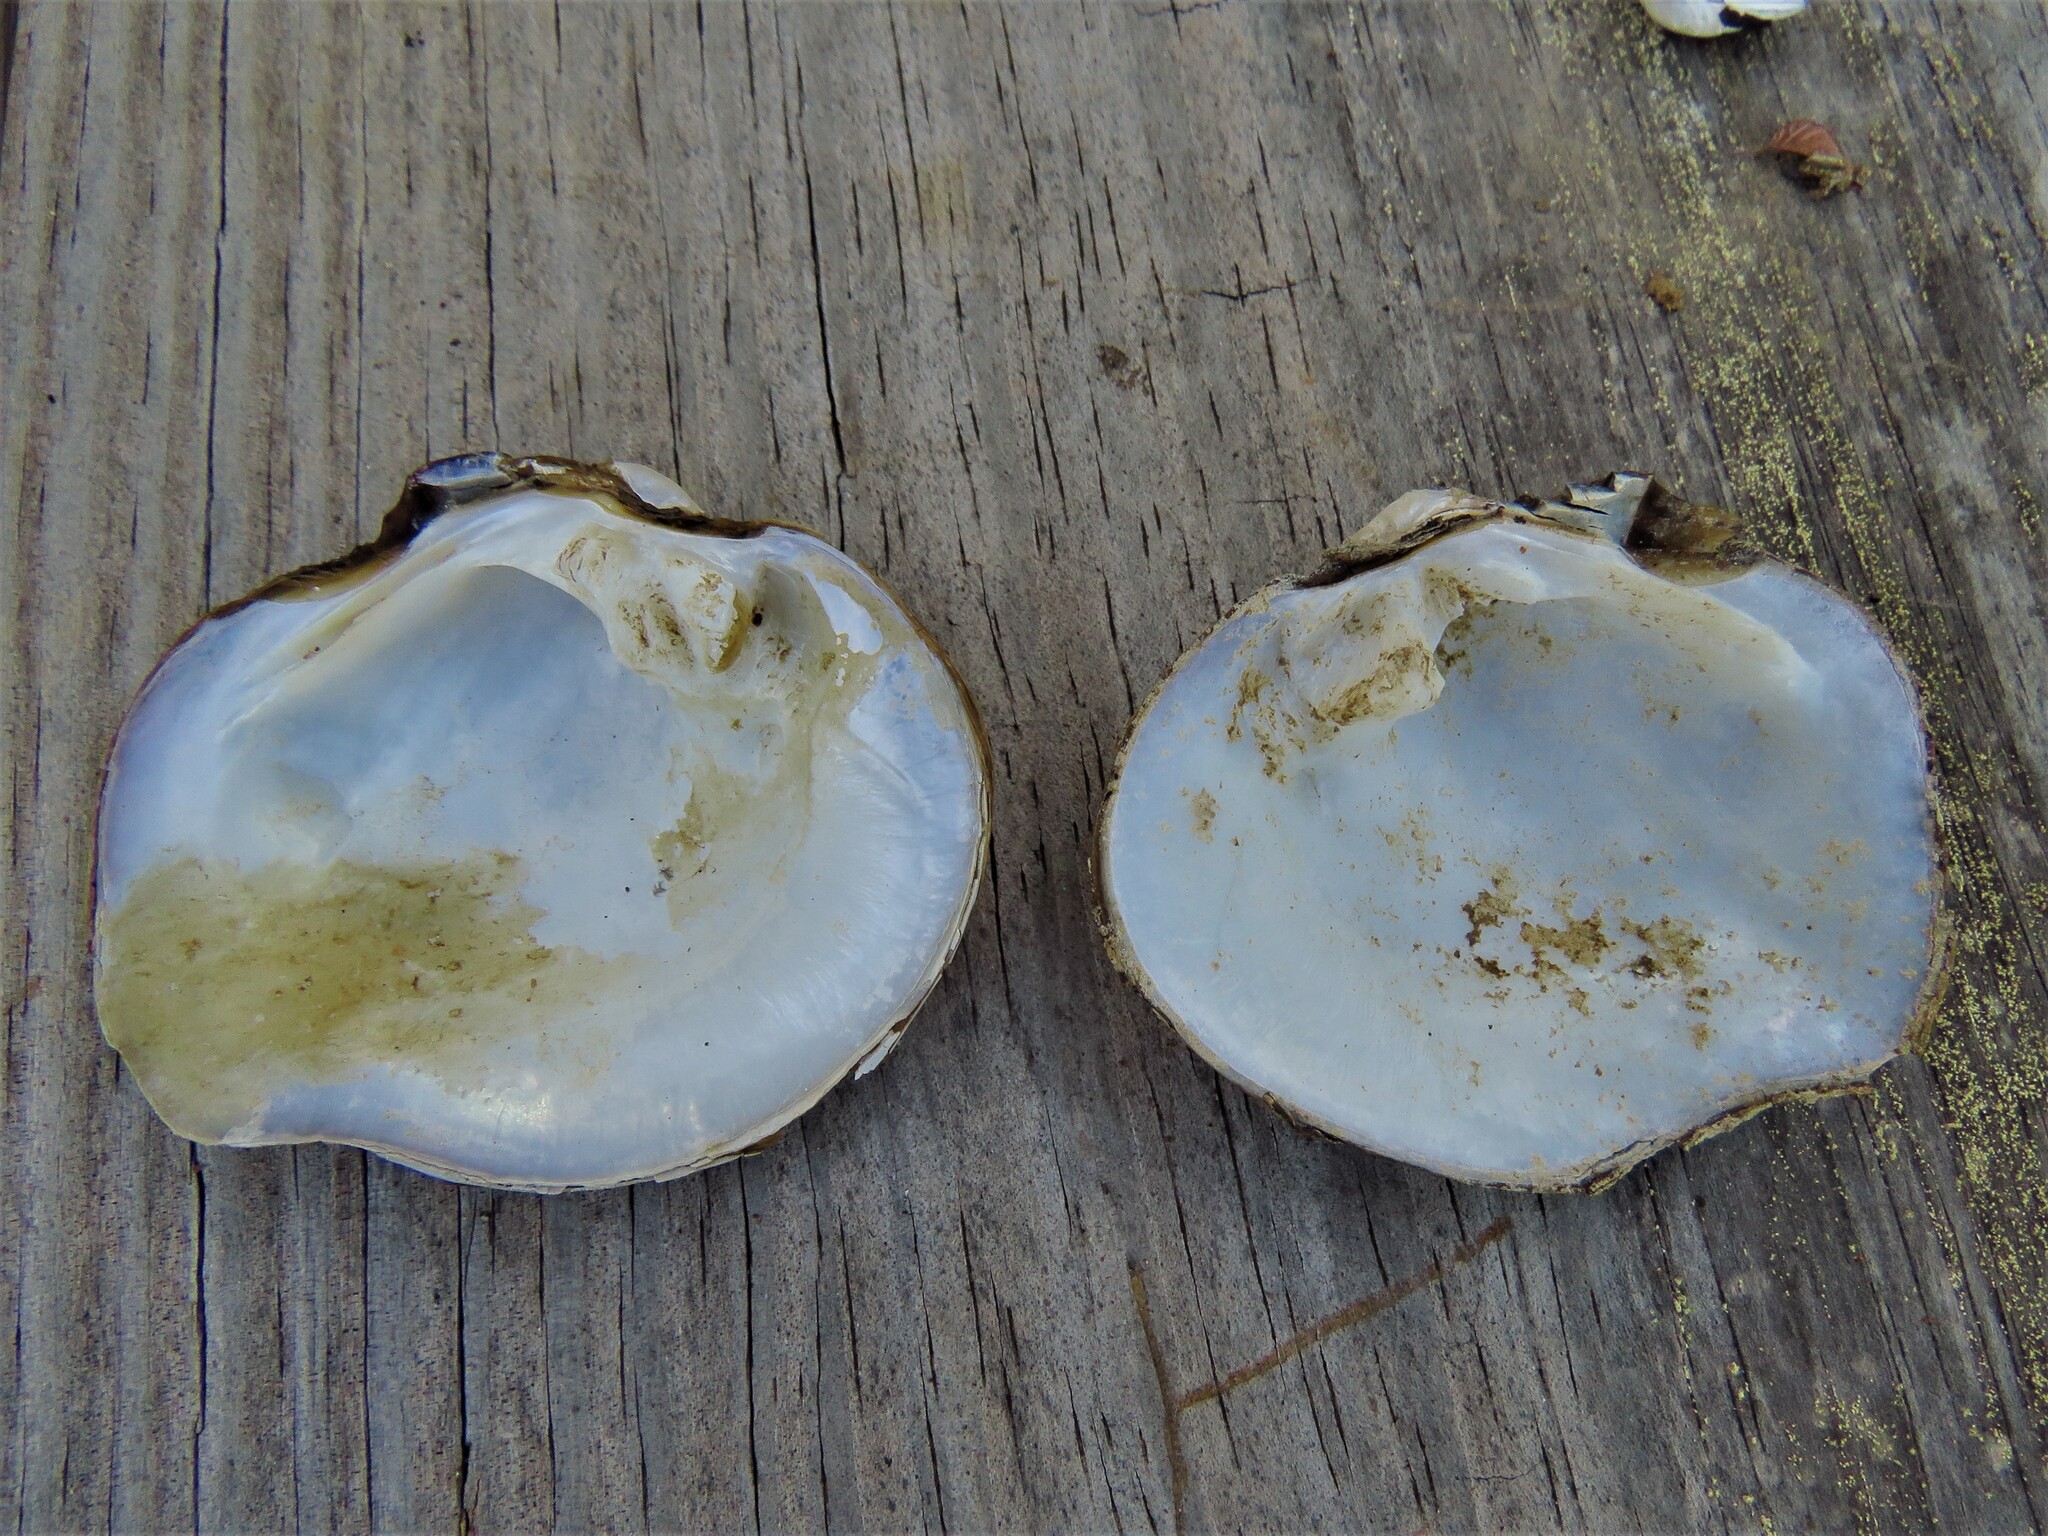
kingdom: Animalia
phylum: Mollusca
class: Bivalvia
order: Unionida
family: Unionidae
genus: Quadrula
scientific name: Quadrula quadrula
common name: Mapleleaf
